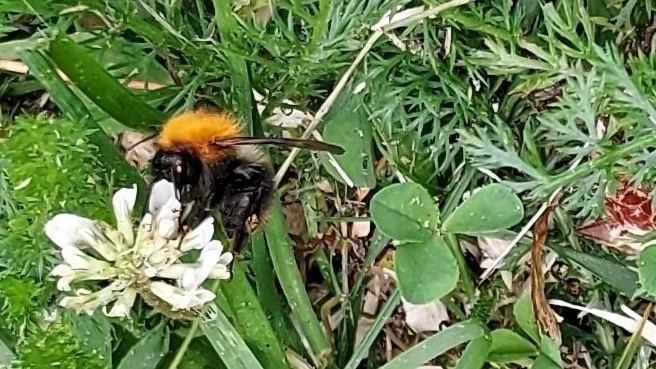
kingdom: Animalia
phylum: Arthropoda
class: Insecta
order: Hymenoptera
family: Apidae
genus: Bombus
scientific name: Bombus hypnorum
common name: New garden bumblebee
